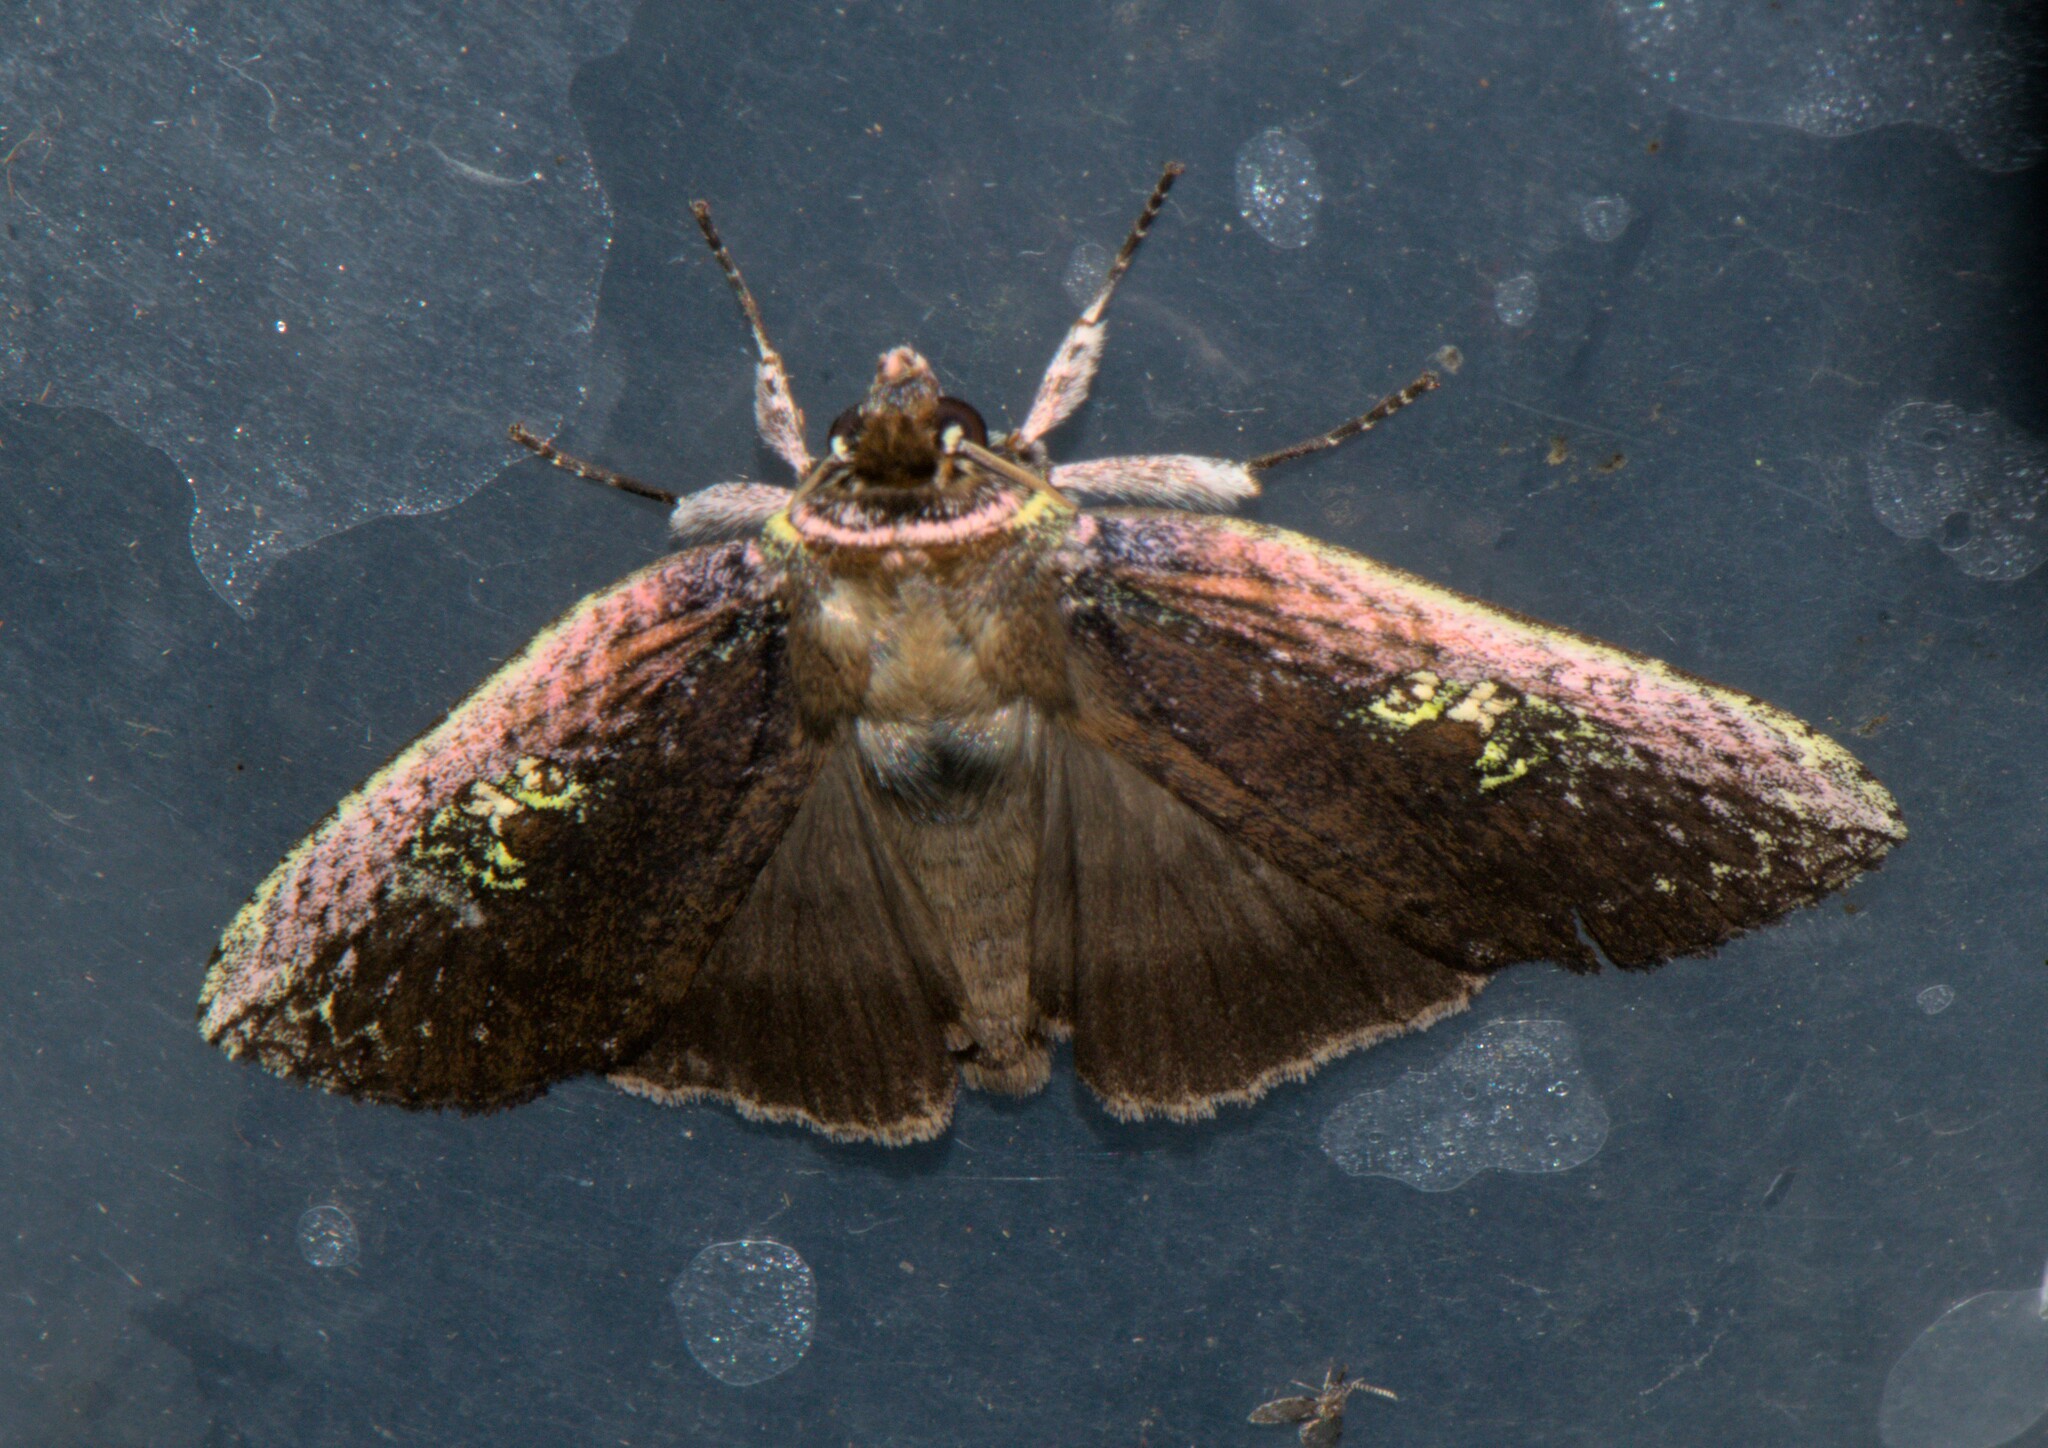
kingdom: Animalia
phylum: Arthropoda
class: Insecta
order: Lepidoptera
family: Drepanidae
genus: Tethea
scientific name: Tethea oberthuri
